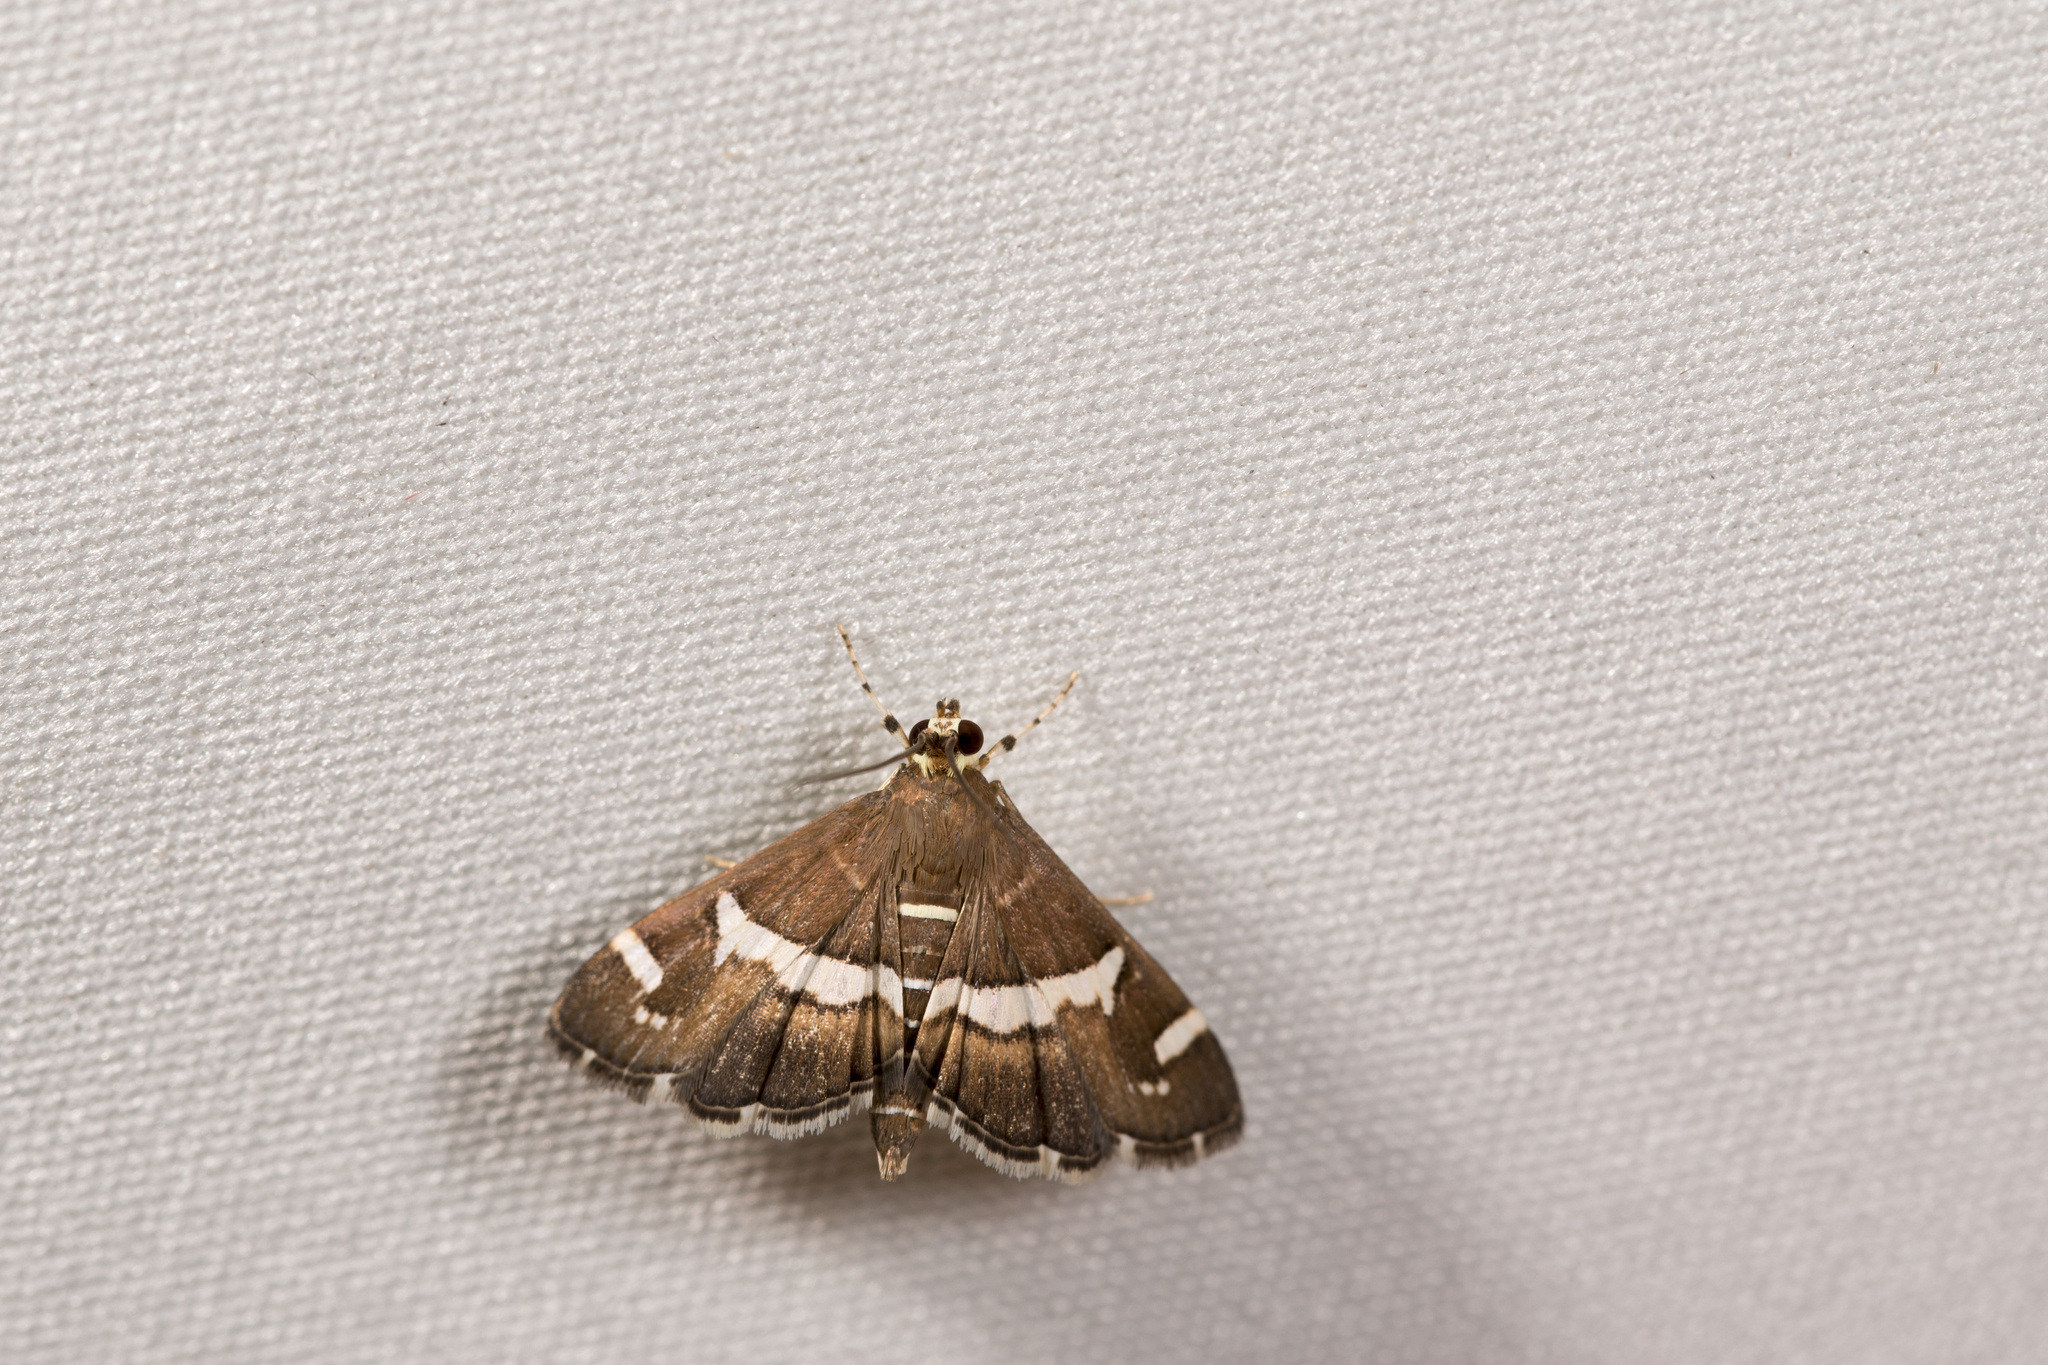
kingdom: Animalia
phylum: Arthropoda
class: Insecta
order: Lepidoptera
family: Crambidae
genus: Spoladea
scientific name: Spoladea recurvalis
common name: Beet webworm moth
